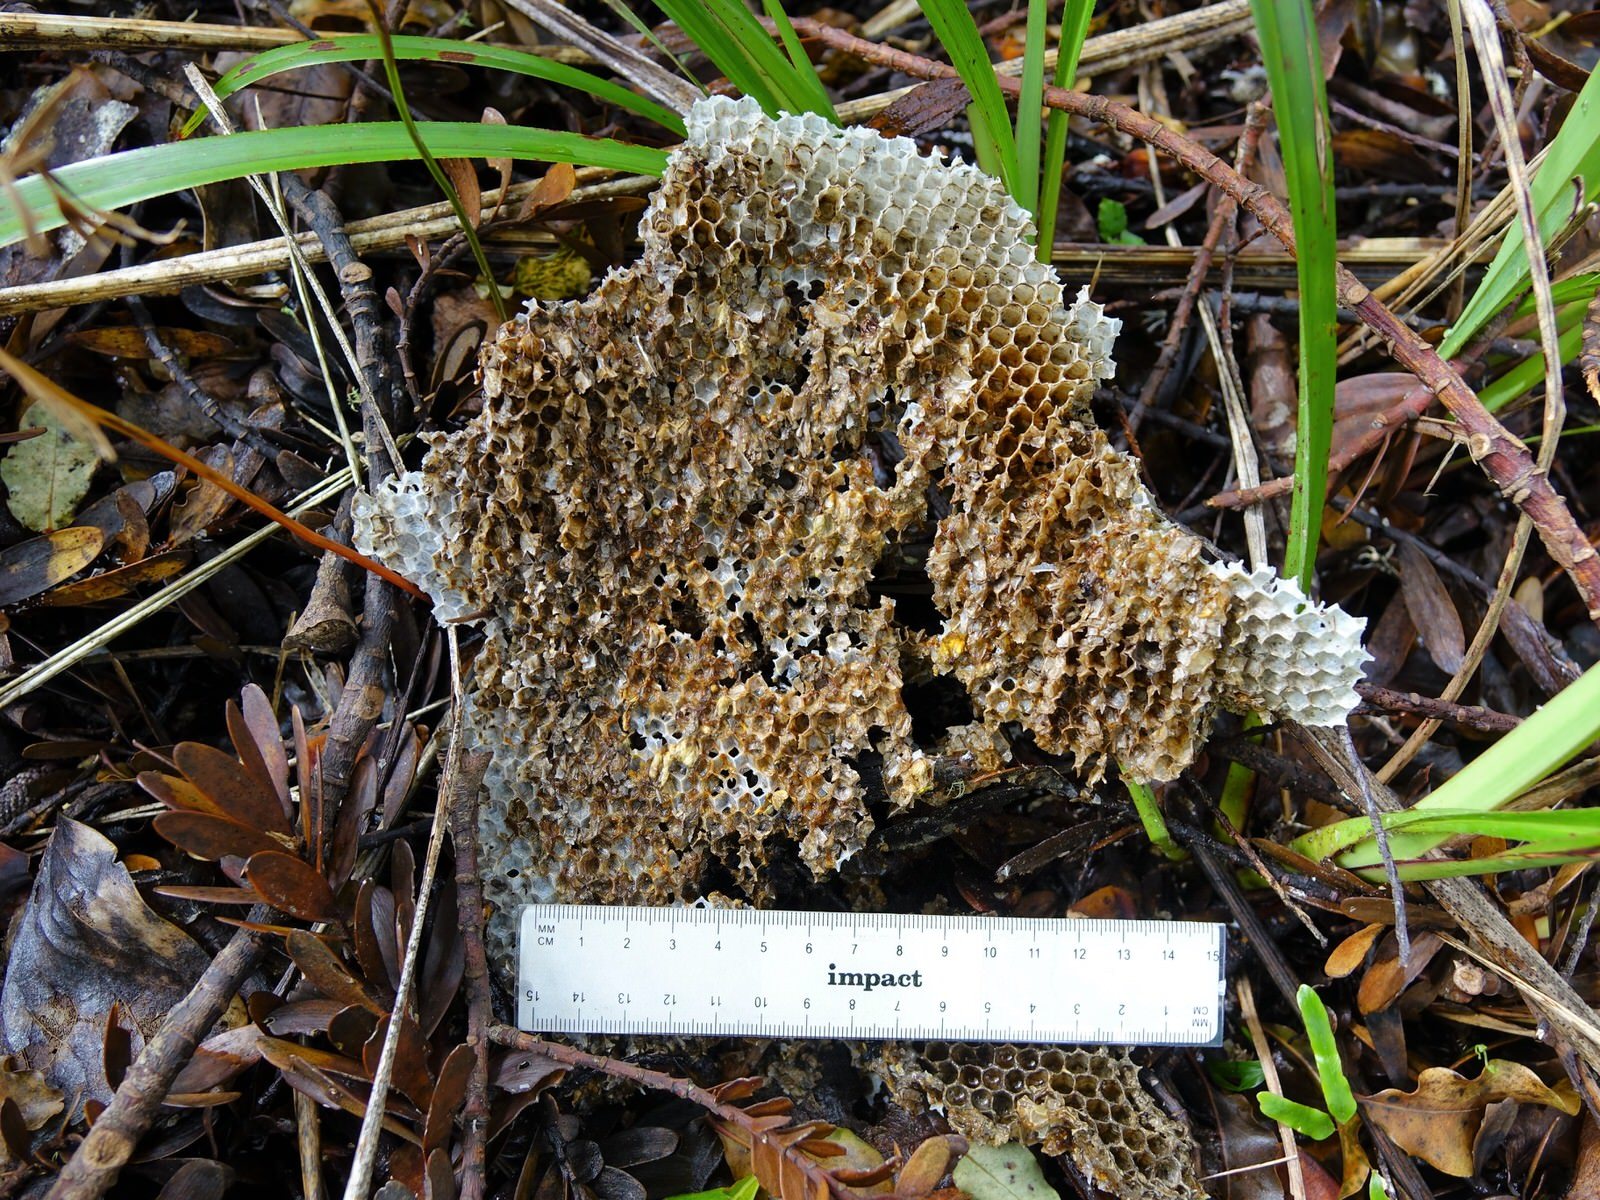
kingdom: Animalia
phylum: Arthropoda
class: Insecta
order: Hymenoptera
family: Apidae
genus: Apis
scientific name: Apis mellifera
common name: Honey bee
